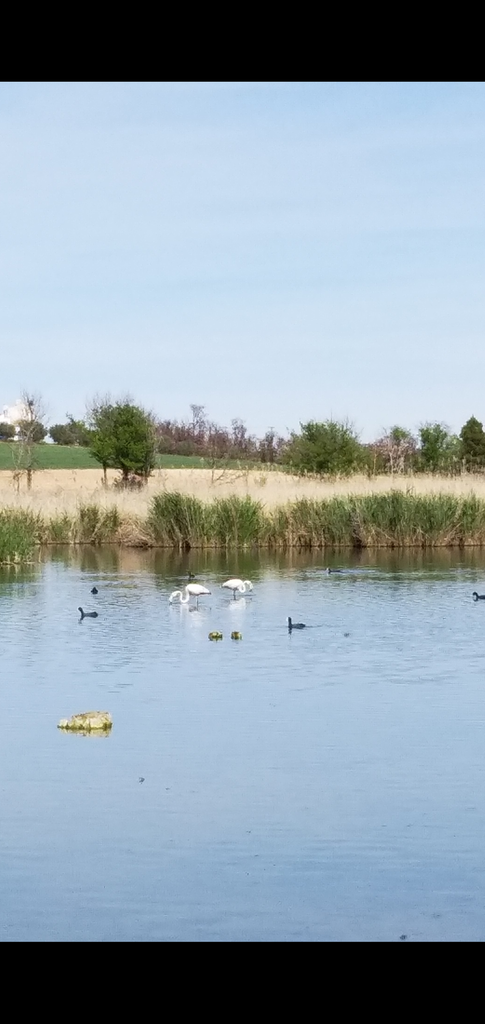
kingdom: Animalia
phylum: Chordata
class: Aves
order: Phoenicopteriformes
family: Phoenicopteridae
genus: Phoenicopterus
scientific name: Phoenicopterus roseus
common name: Greater flamingo
